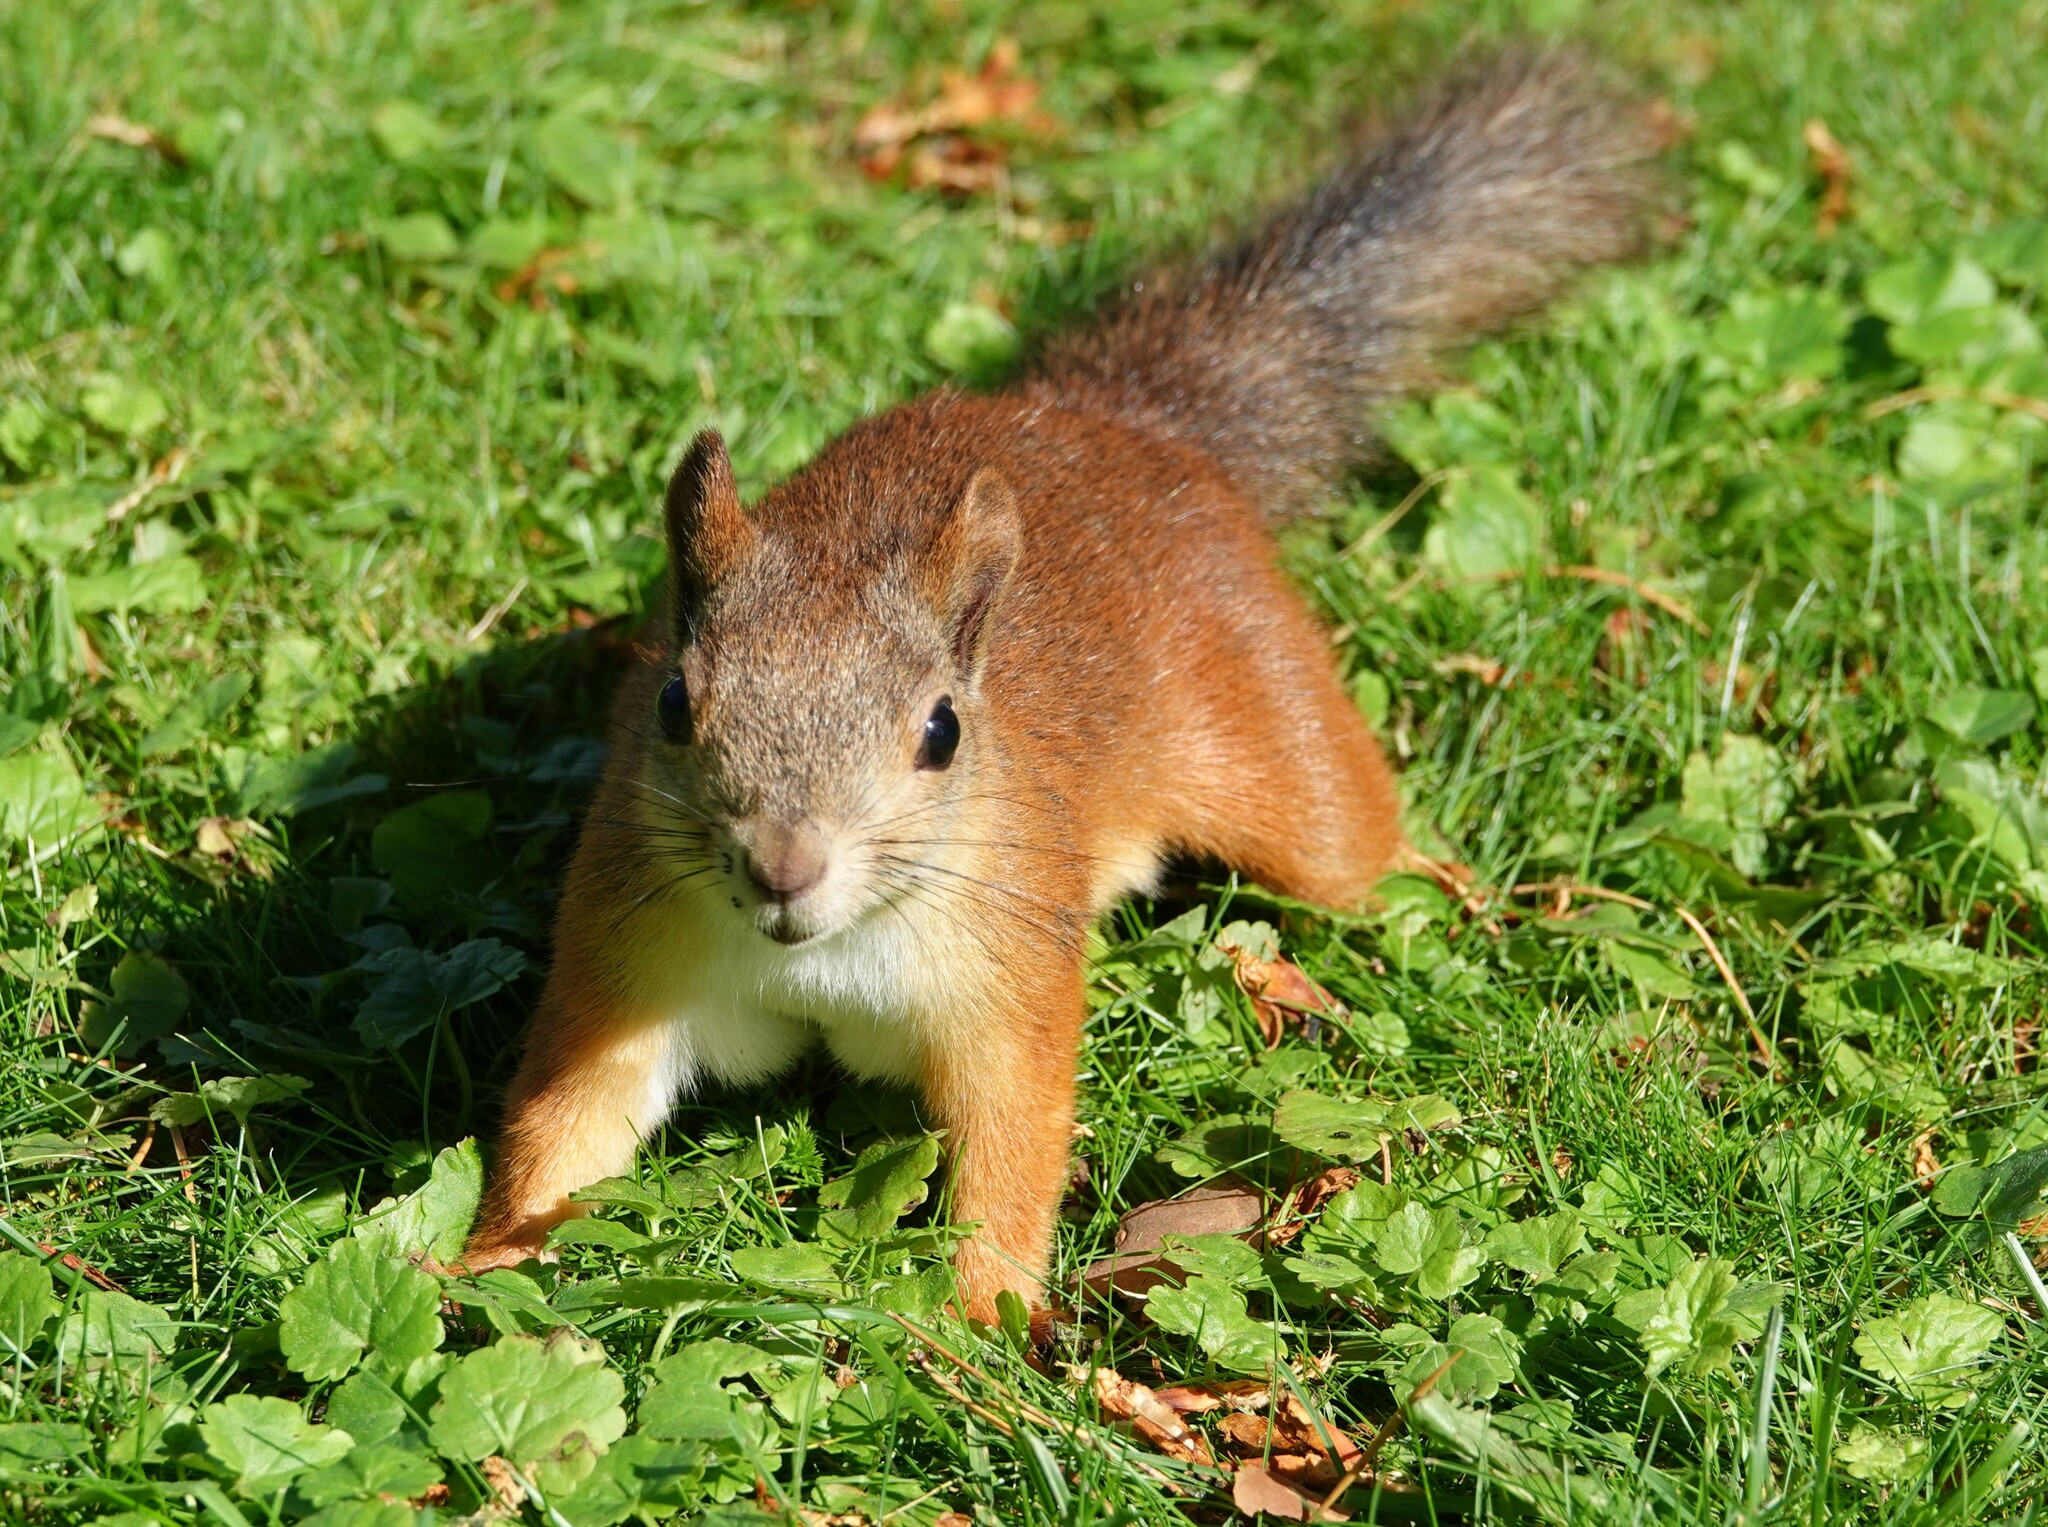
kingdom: Animalia
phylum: Chordata
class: Mammalia
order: Rodentia
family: Sciuridae
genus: Sciurus
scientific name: Sciurus vulgaris
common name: Eurasian red squirrel
